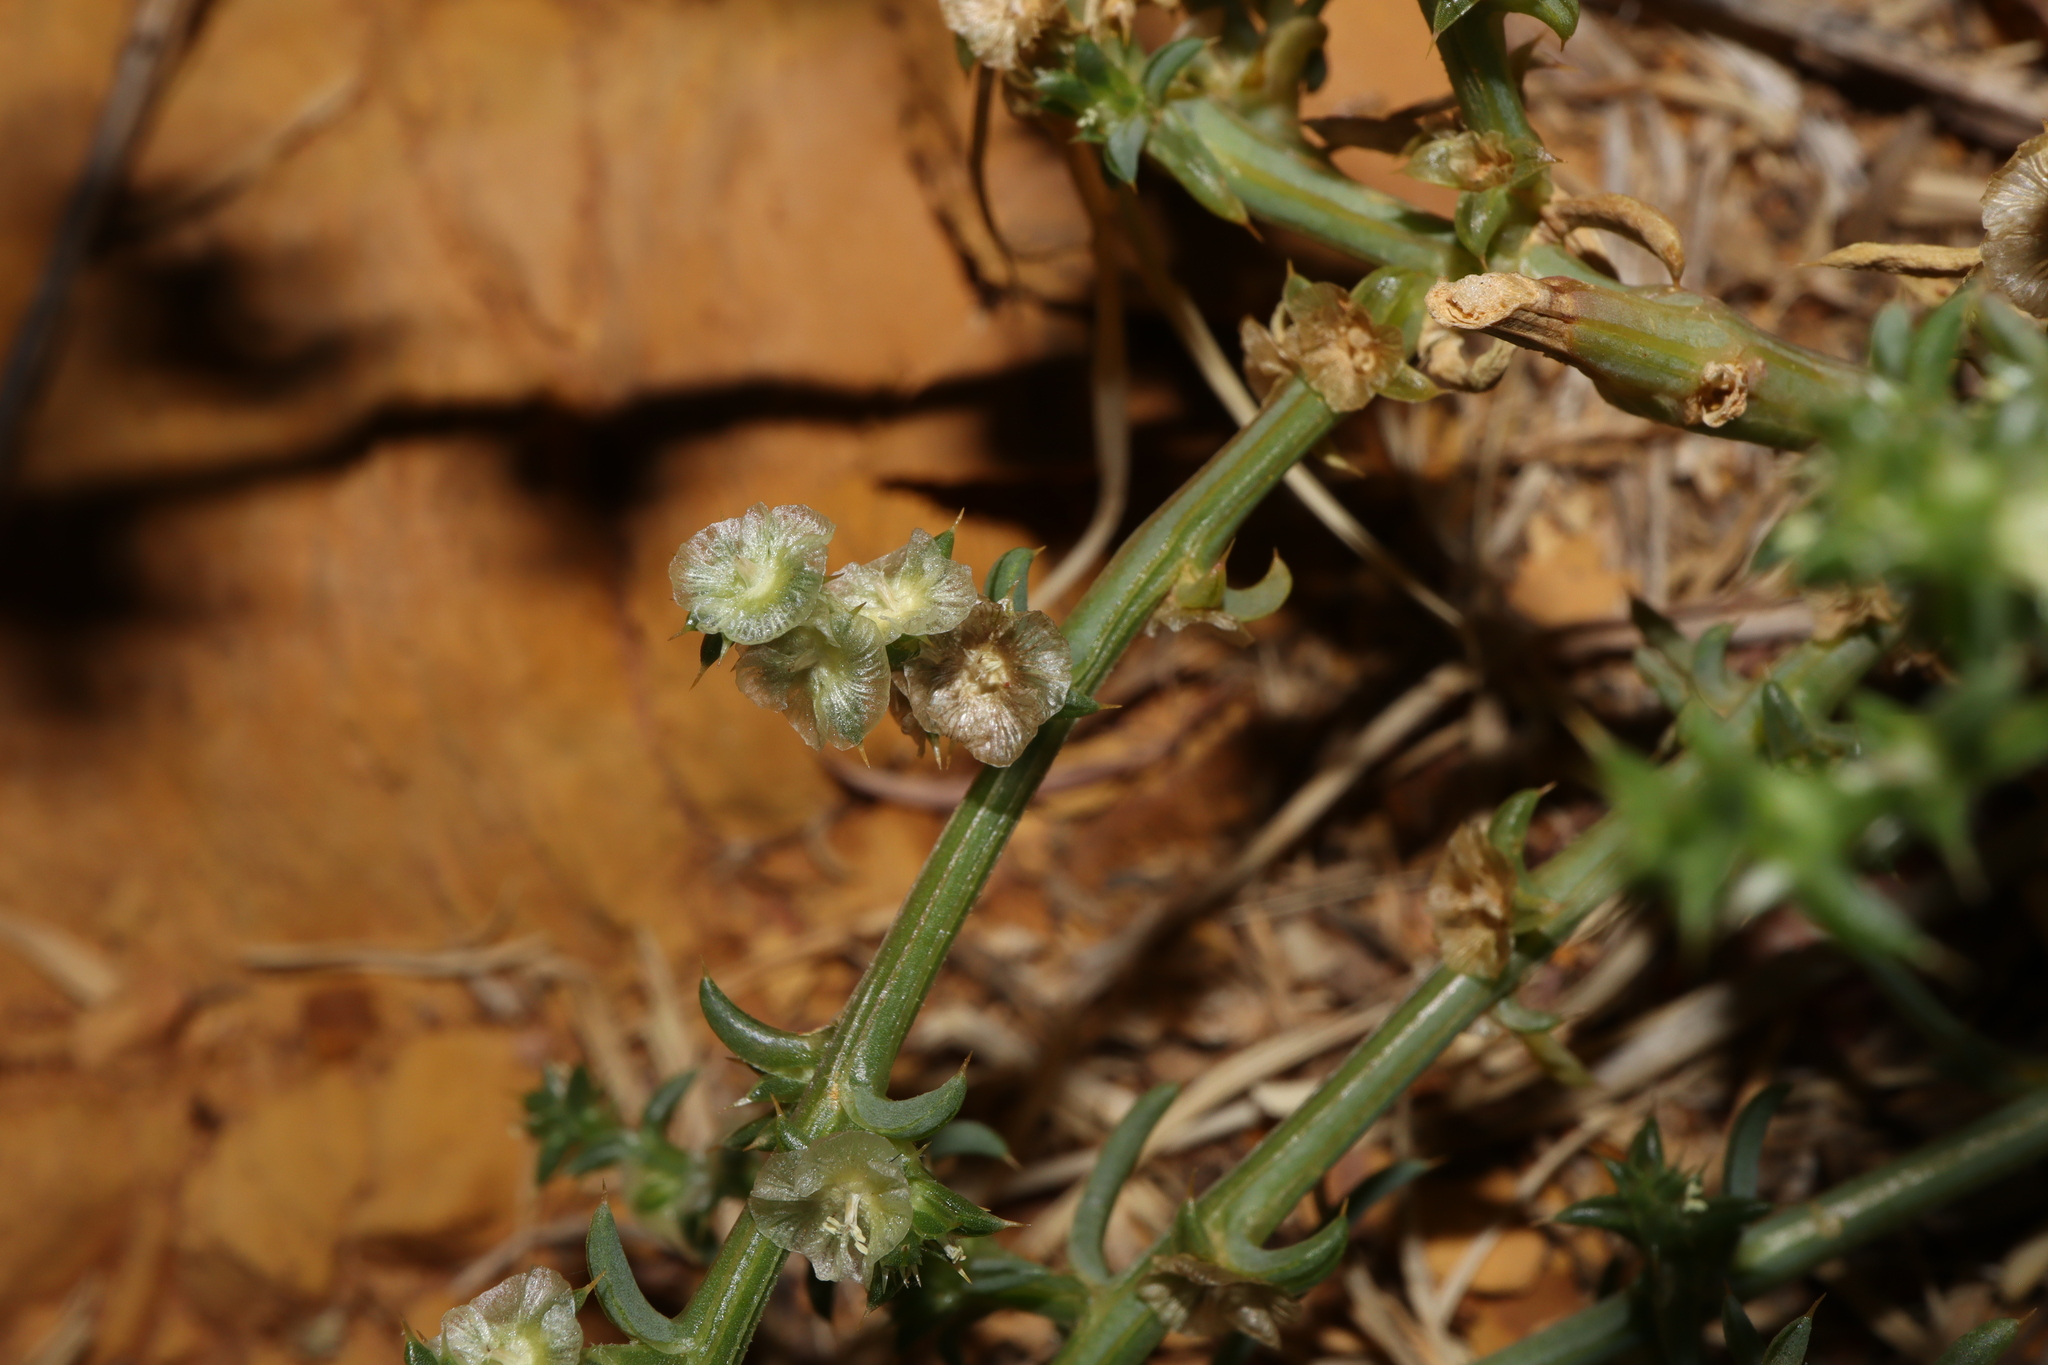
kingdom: Plantae
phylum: Tracheophyta
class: Magnoliopsida
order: Caryophyllales
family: Amaranthaceae
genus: Salsola
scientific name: Salsola australis
